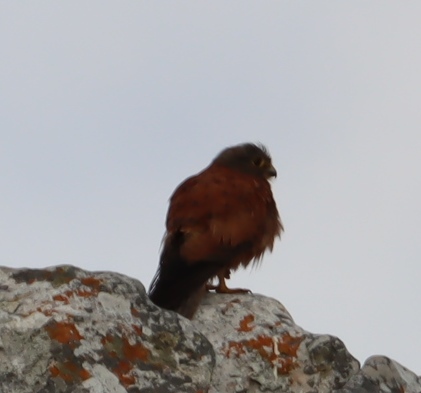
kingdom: Animalia
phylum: Chordata
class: Aves
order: Falconiformes
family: Falconidae
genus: Falco
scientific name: Falco rupicolus
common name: Rock kestrel
